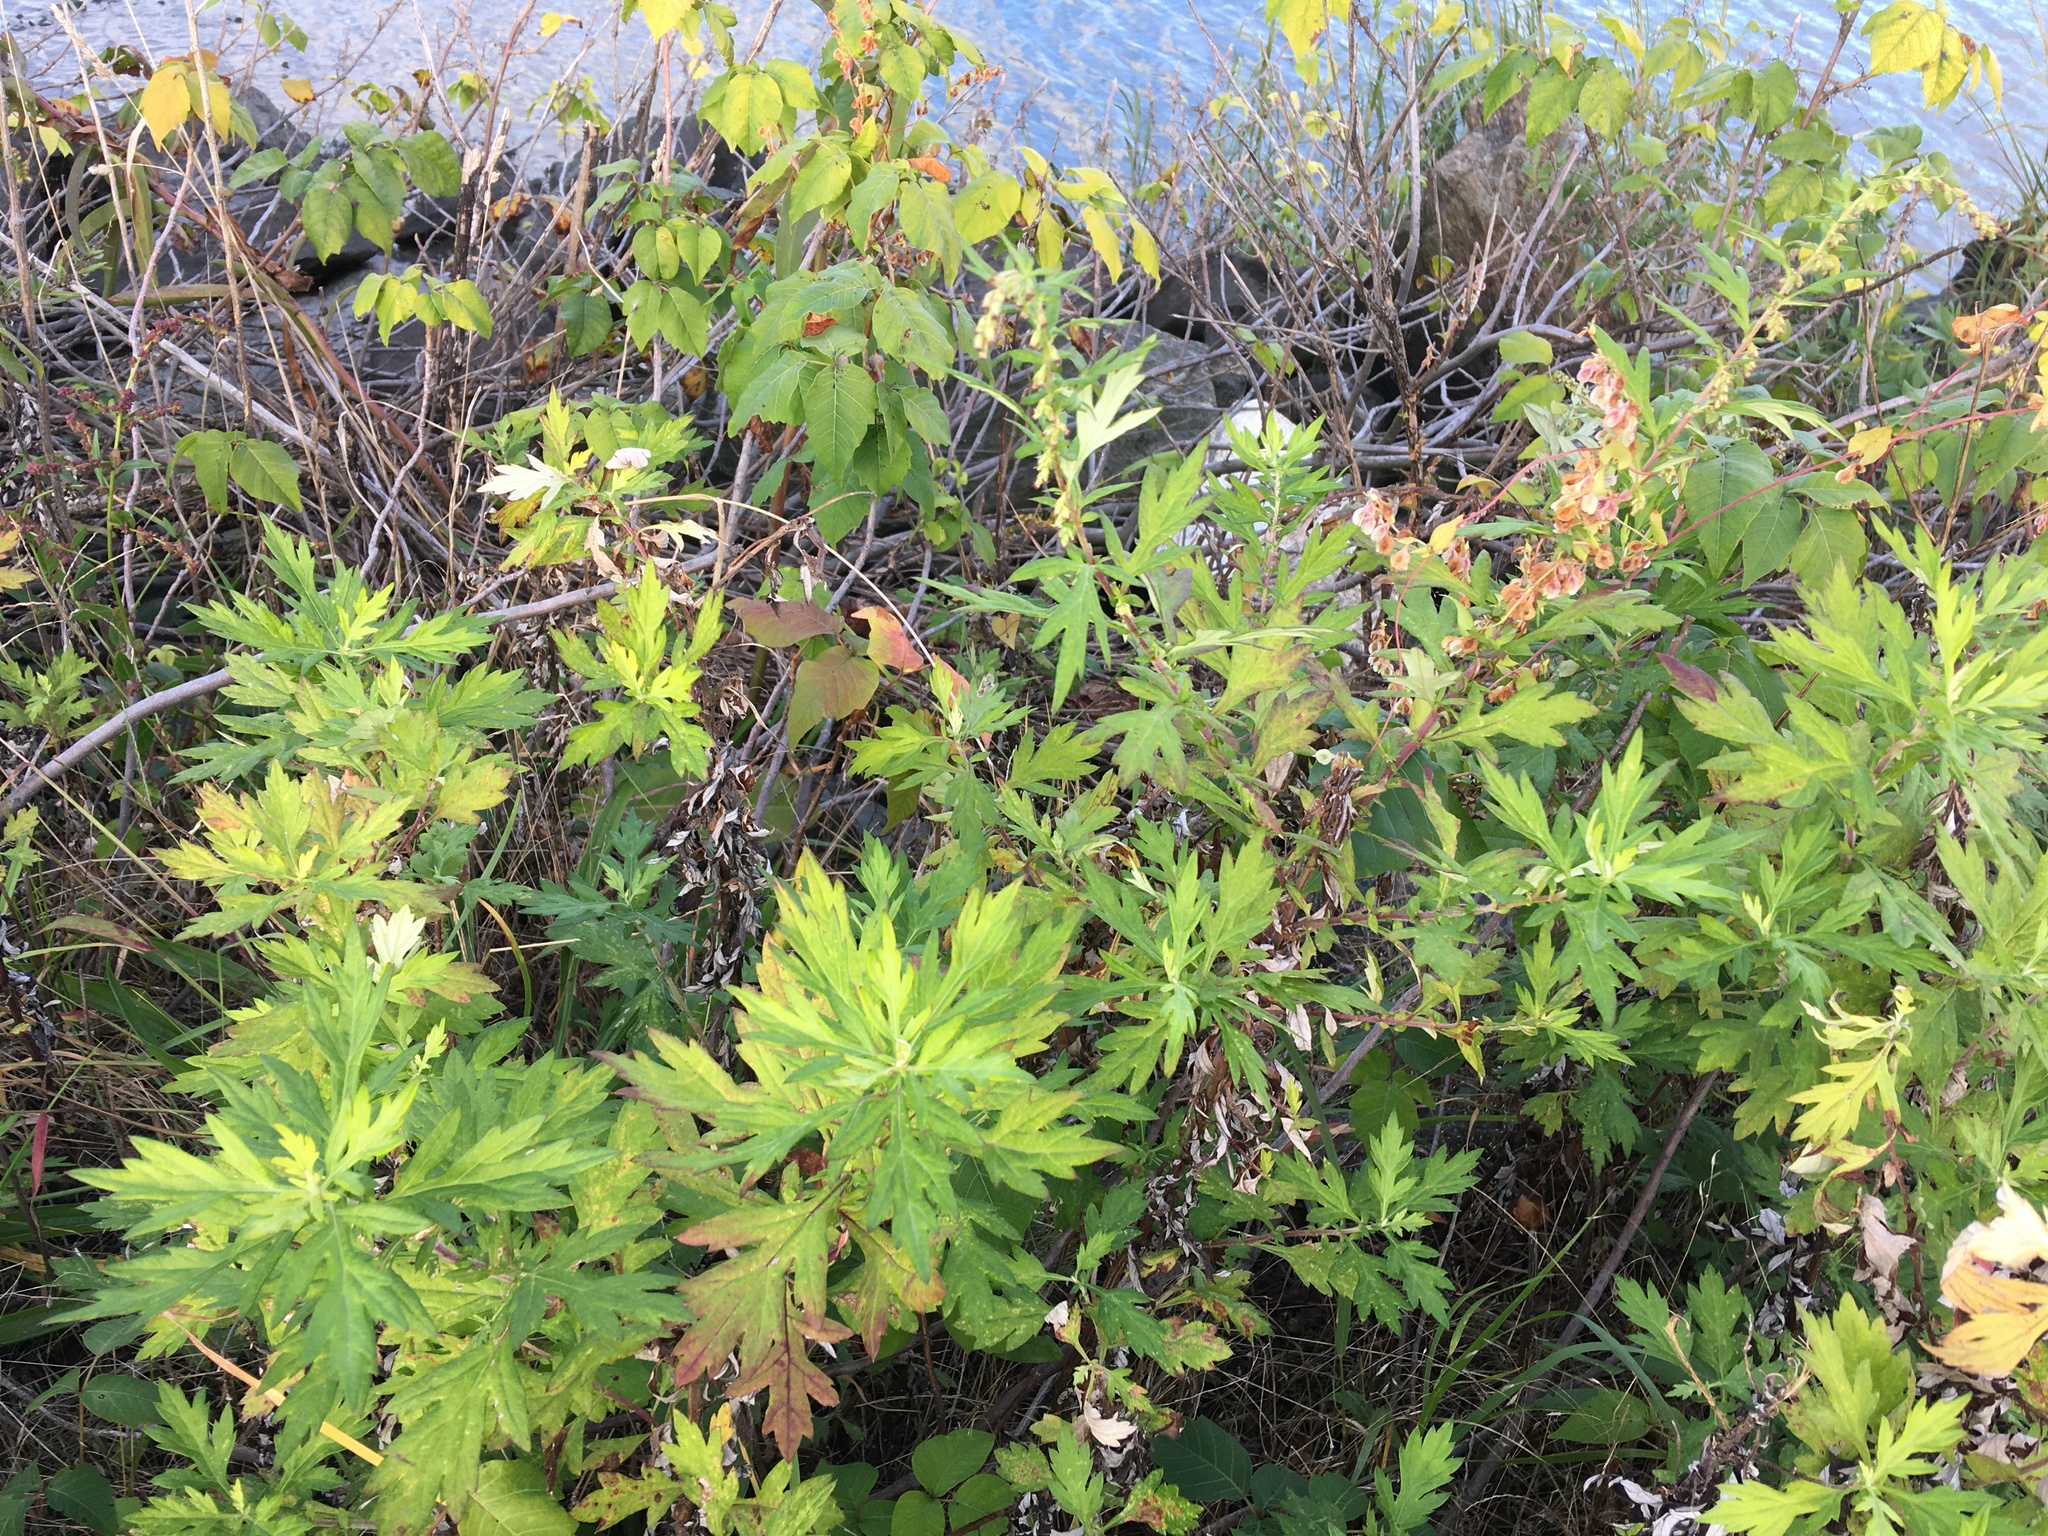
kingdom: Plantae
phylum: Tracheophyta
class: Magnoliopsida
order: Asterales
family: Asteraceae
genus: Artemisia
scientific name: Artemisia vulgaris
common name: Mugwort
